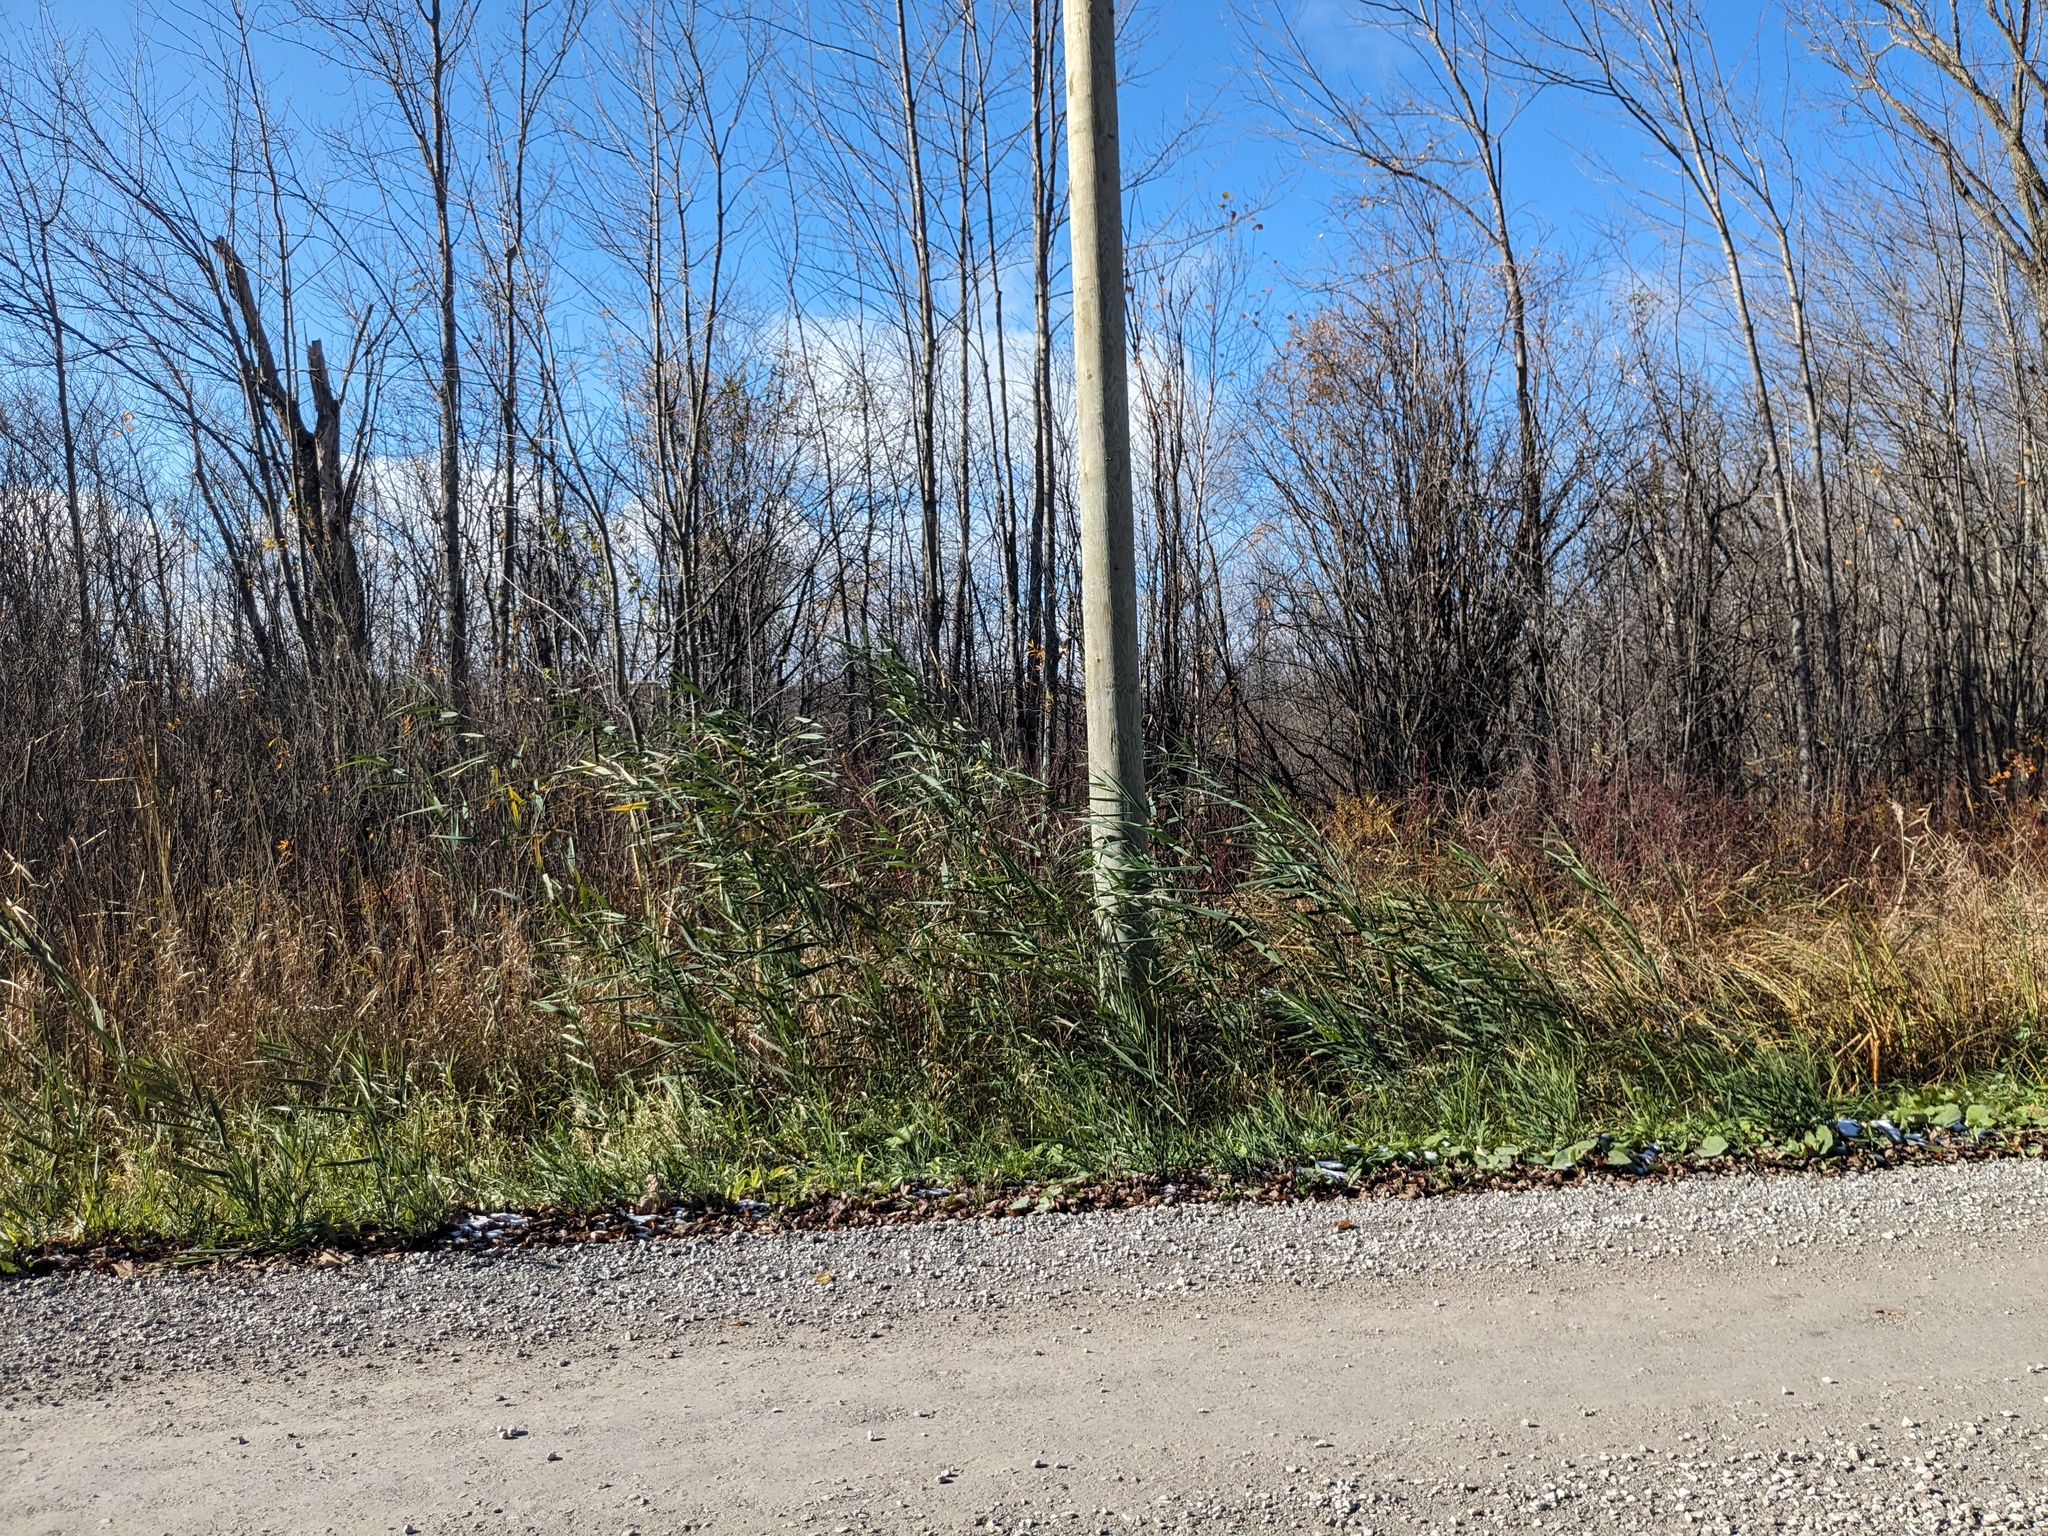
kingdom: Plantae
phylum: Tracheophyta
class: Liliopsida
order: Poales
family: Poaceae
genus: Phragmites
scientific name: Phragmites australis
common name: Common reed
